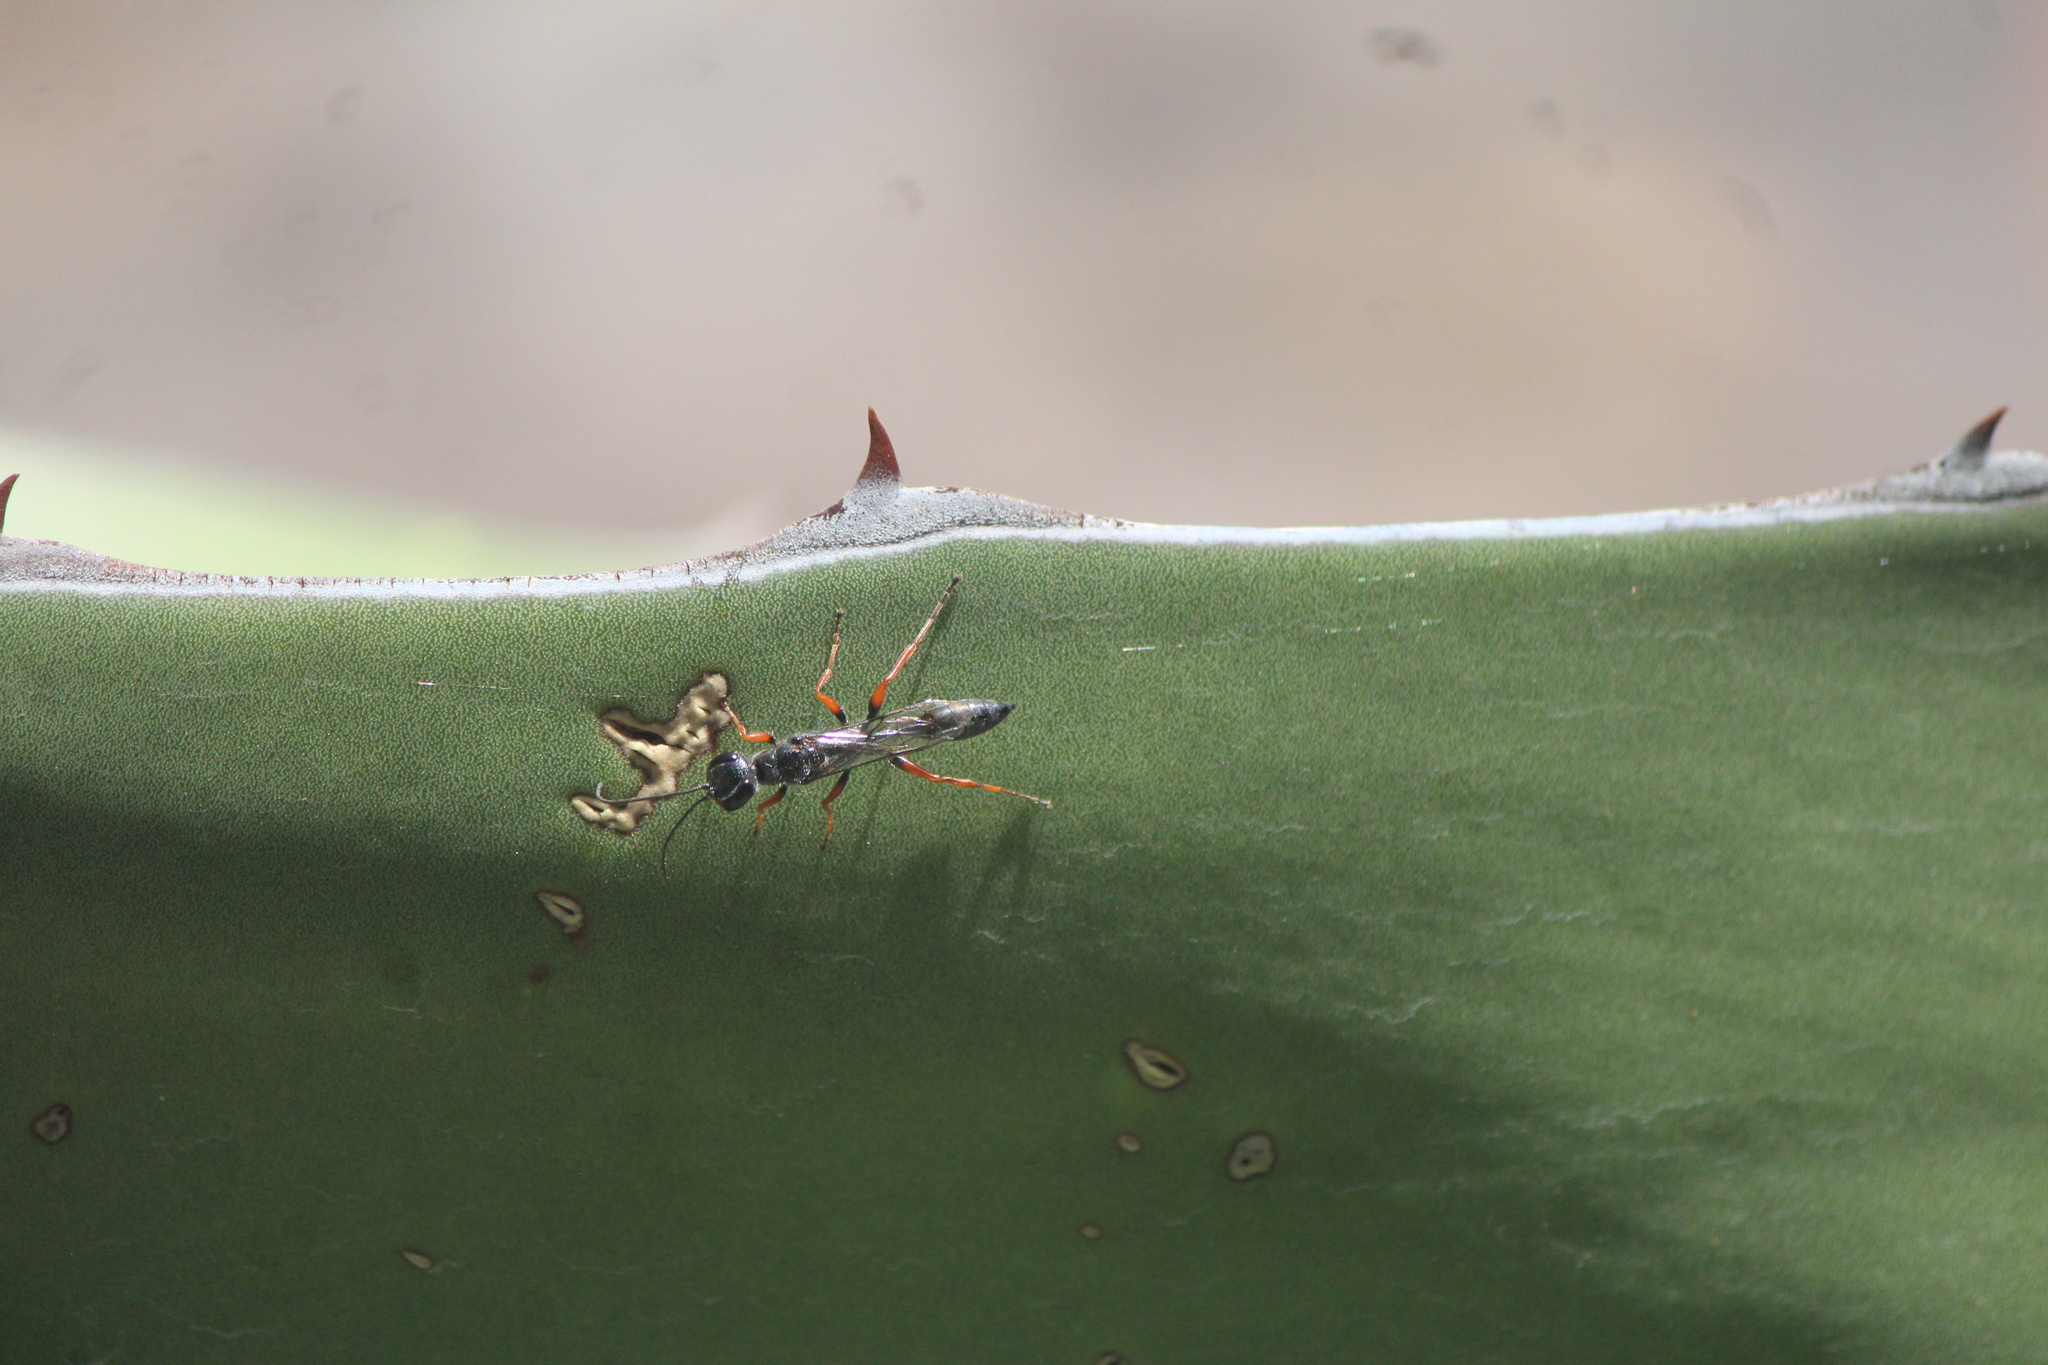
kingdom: Animalia
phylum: Arthropoda
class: Insecta
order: Hymenoptera
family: Sphecidae
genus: Podium
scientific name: Podium rufipes
